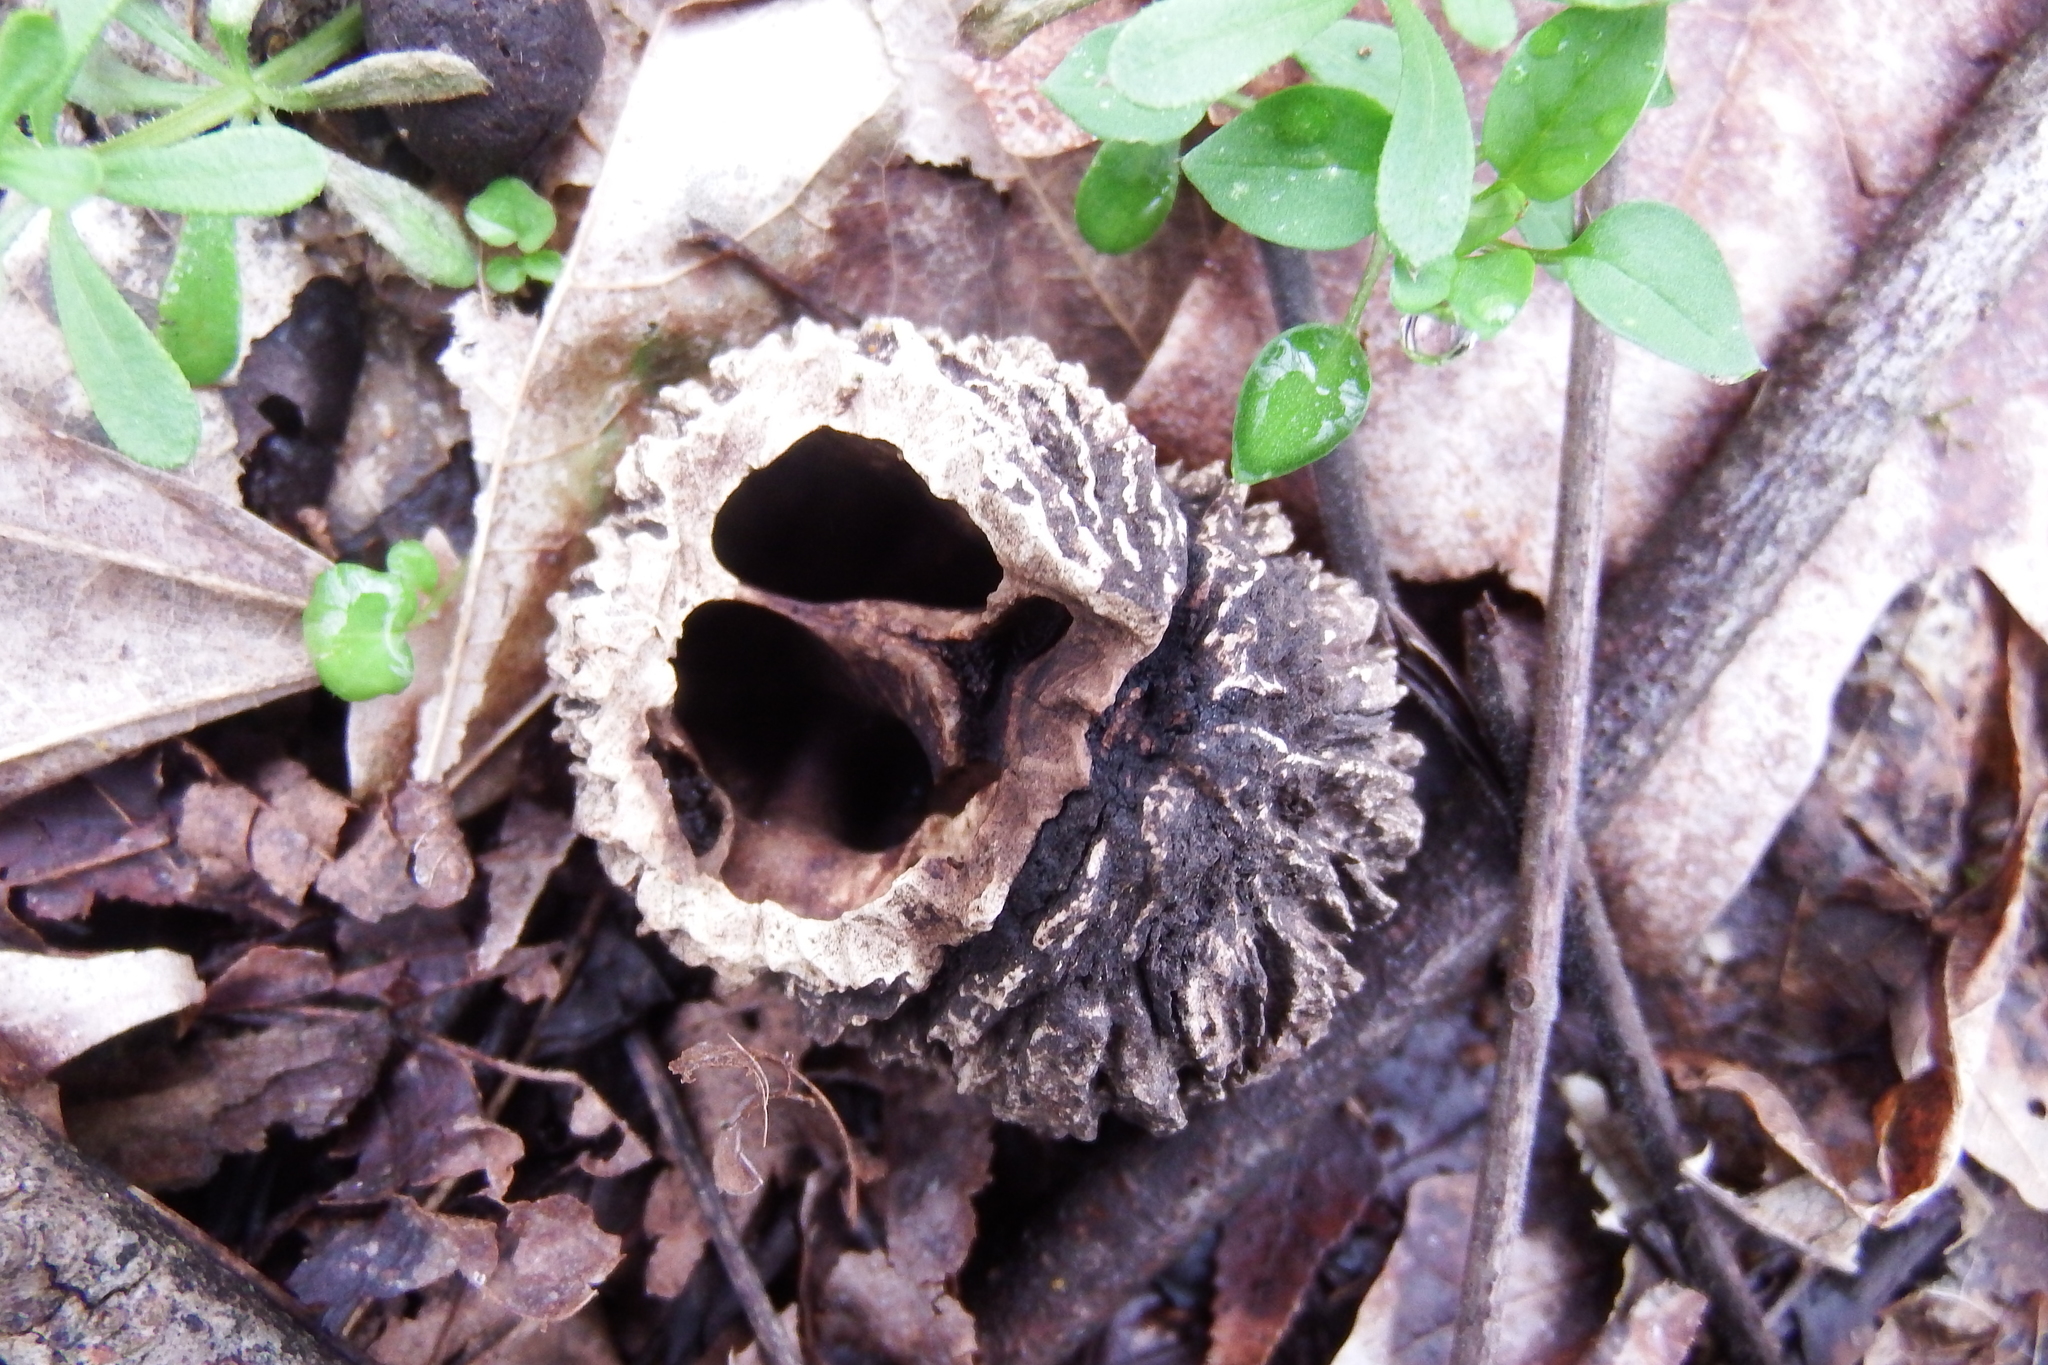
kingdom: Plantae
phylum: Tracheophyta
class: Magnoliopsida
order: Fagales
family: Juglandaceae
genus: Juglans
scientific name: Juglans nigra
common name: Black walnut
